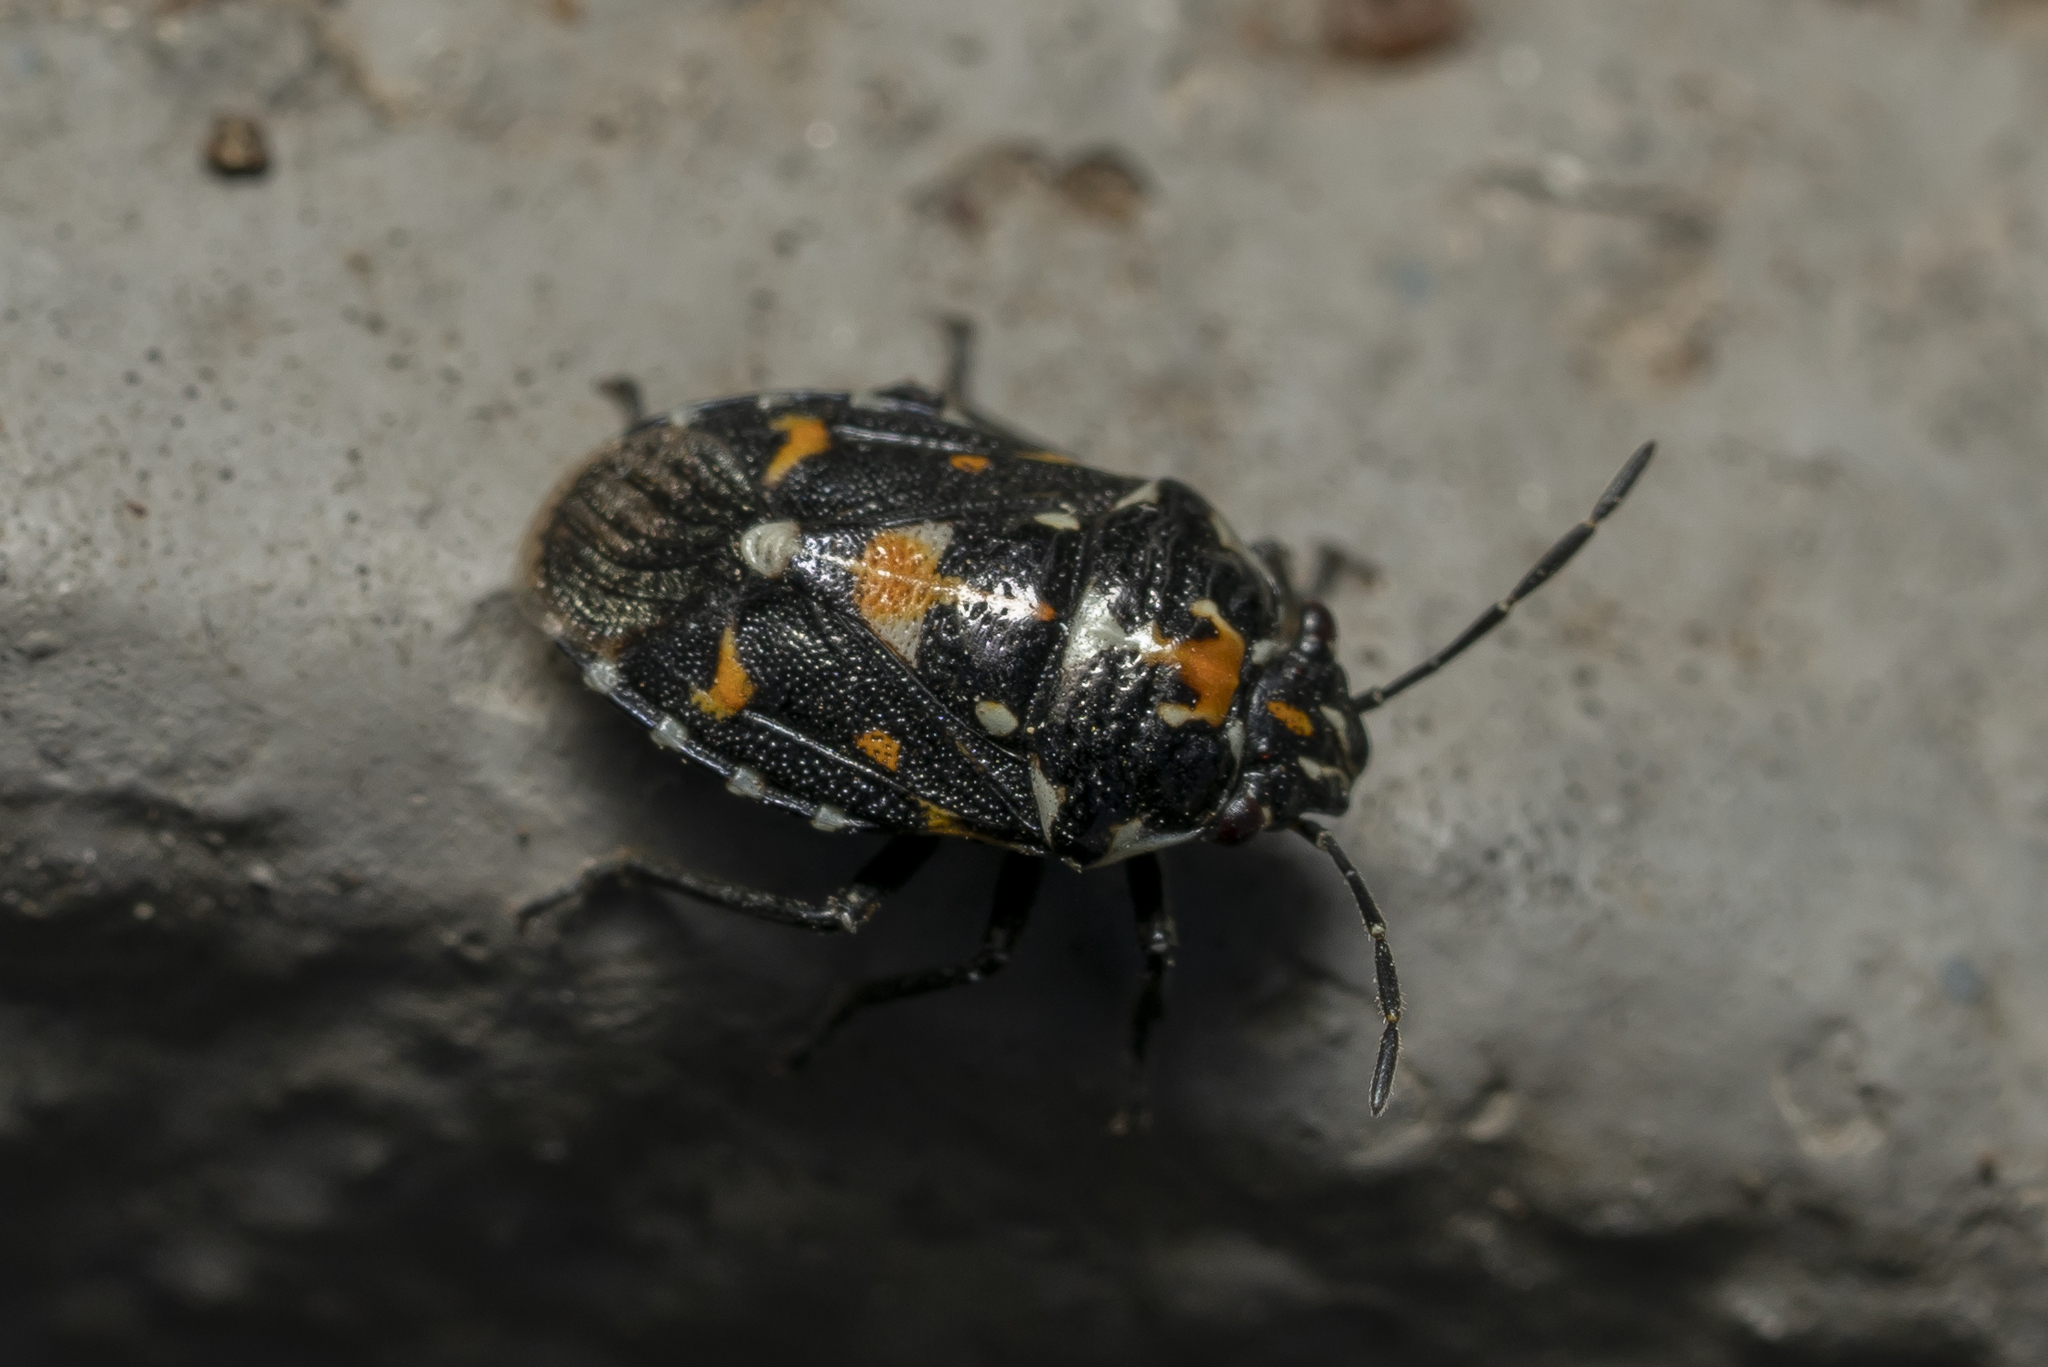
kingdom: Animalia
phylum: Arthropoda
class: Insecta
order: Hemiptera
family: Pentatomidae
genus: Stenozygum
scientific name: Stenozygum coloratum
